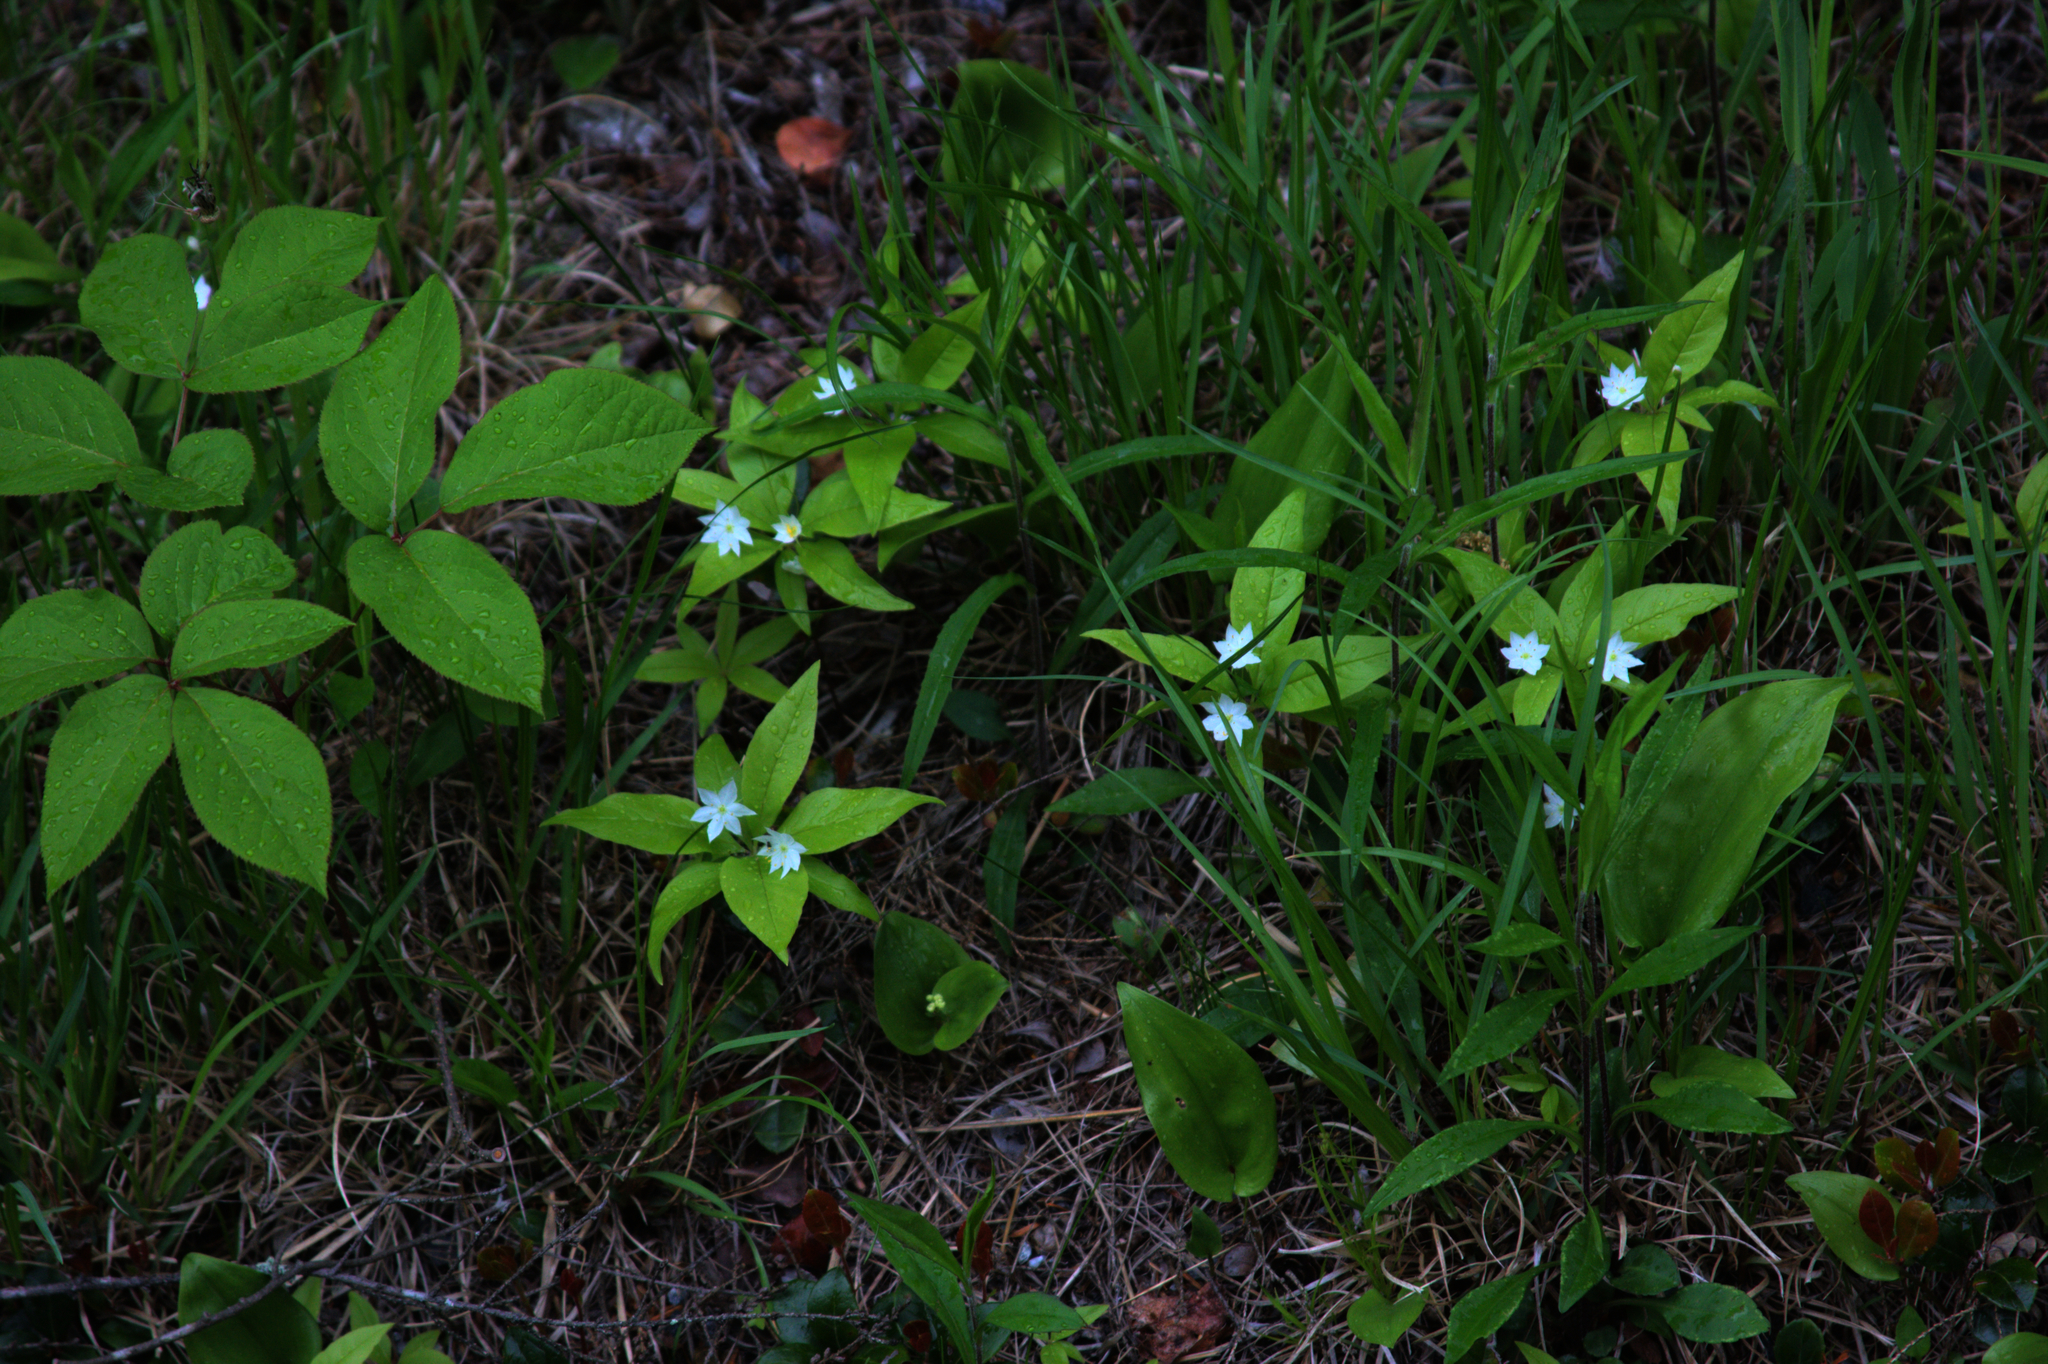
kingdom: Plantae
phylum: Tracheophyta
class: Magnoliopsida
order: Apiales
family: Araliaceae
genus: Aralia
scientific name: Aralia nudicaulis
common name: Wild sarsaparilla
